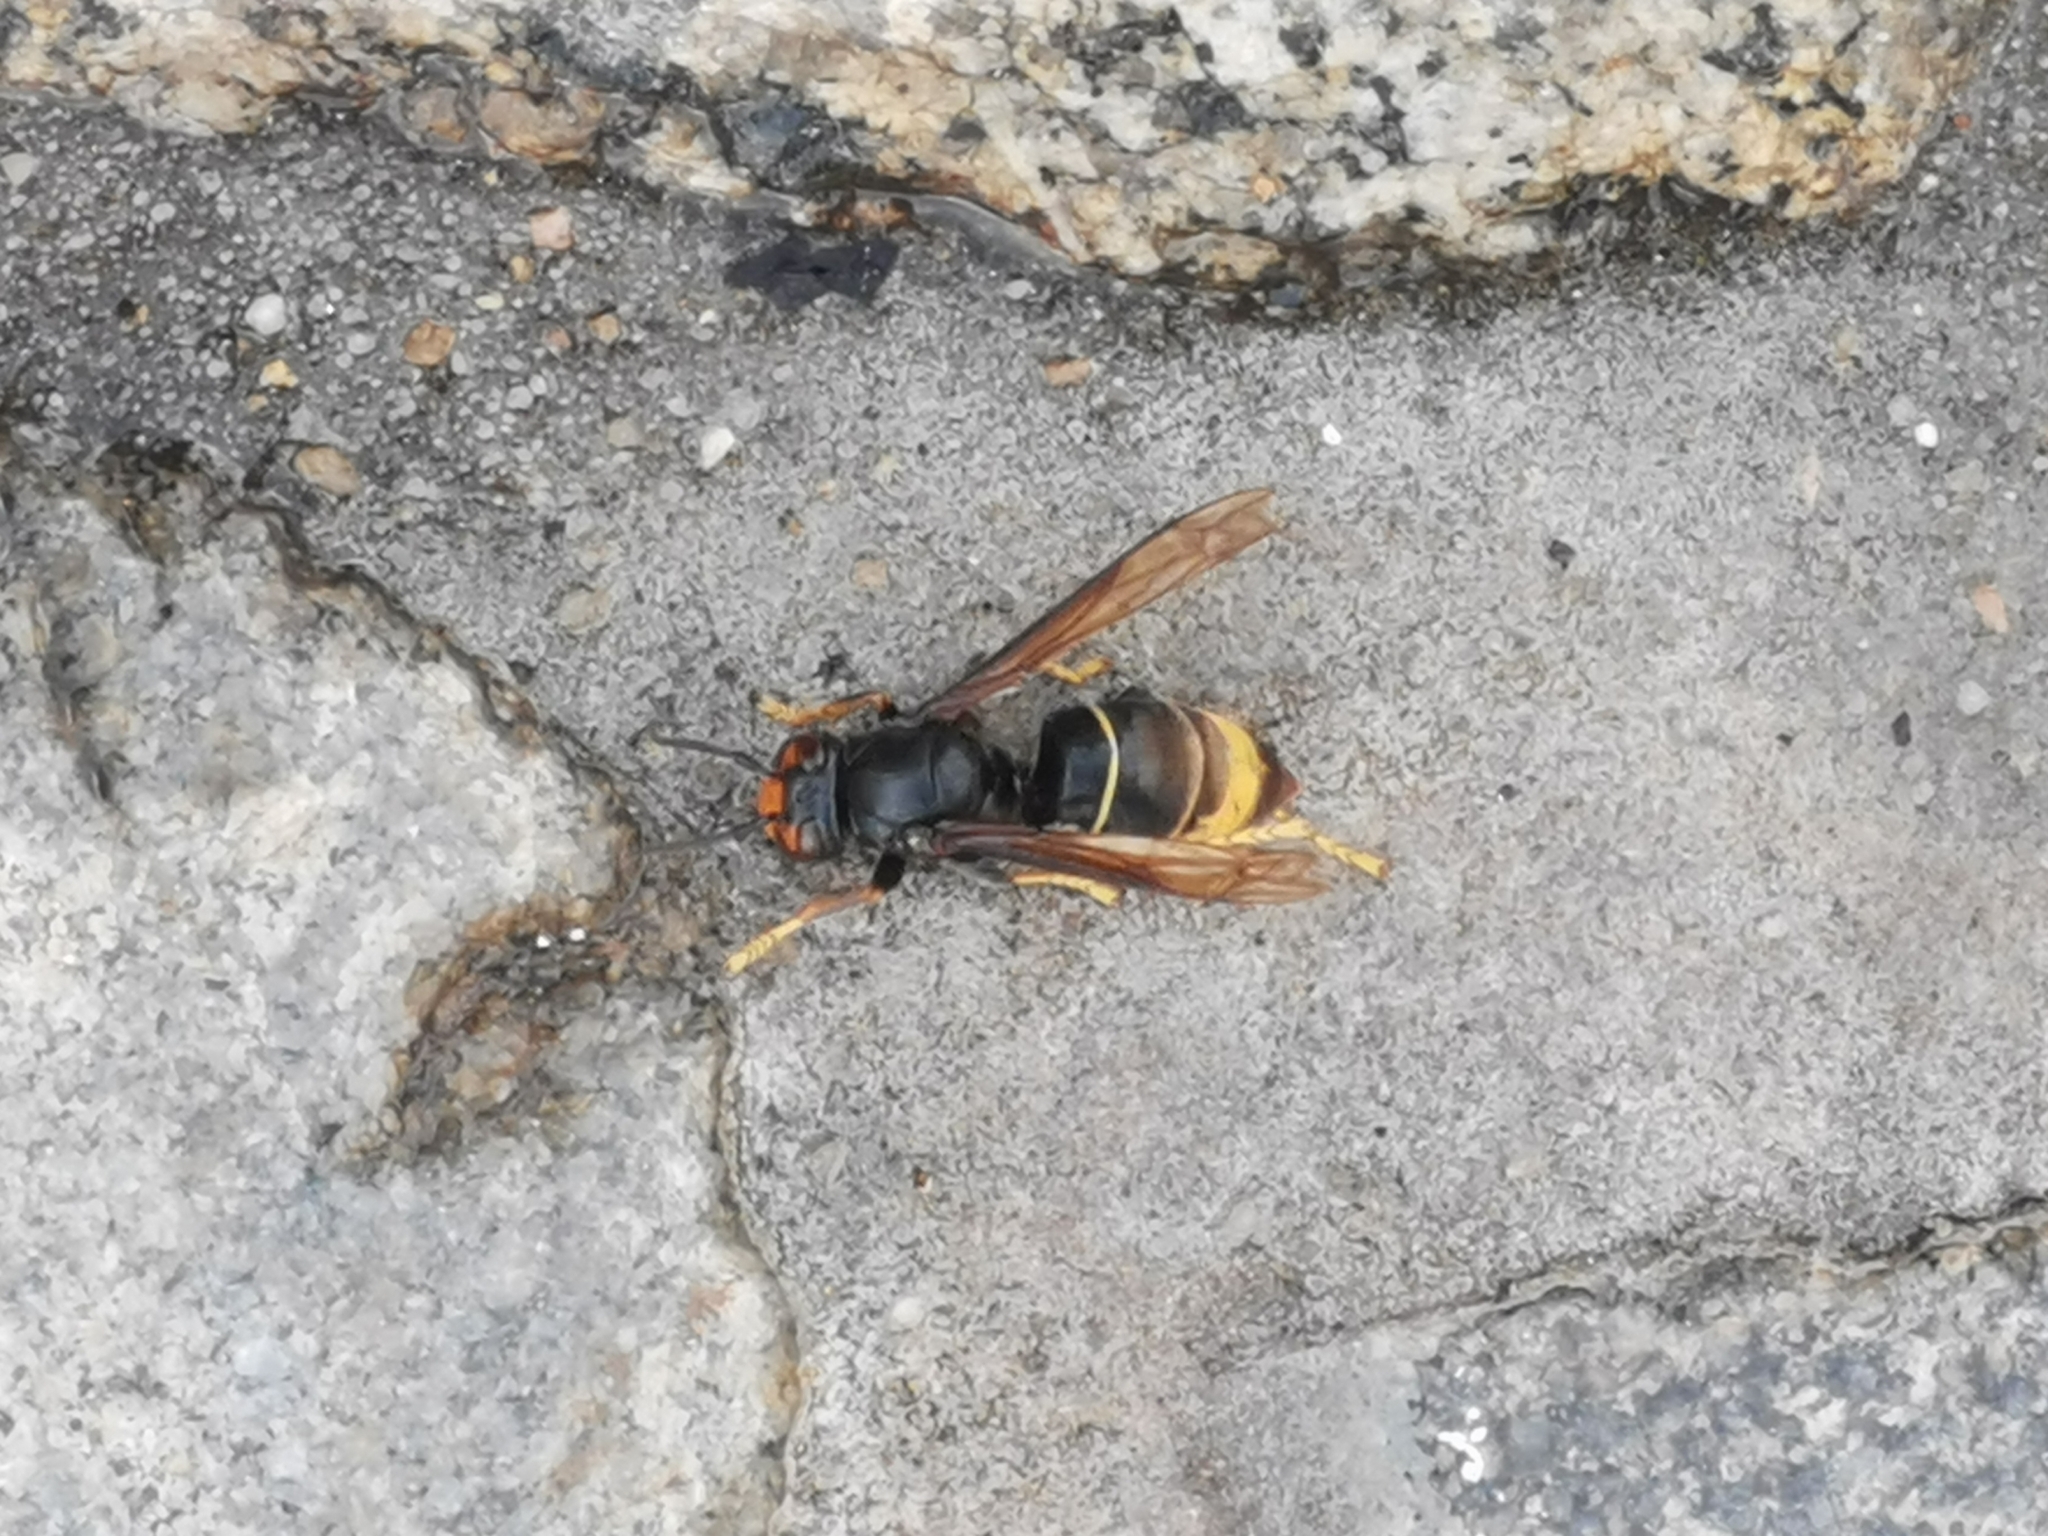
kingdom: Animalia
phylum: Arthropoda
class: Insecta
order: Hymenoptera
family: Vespidae
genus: Vespa
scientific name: Vespa velutina
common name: Asian hornet
